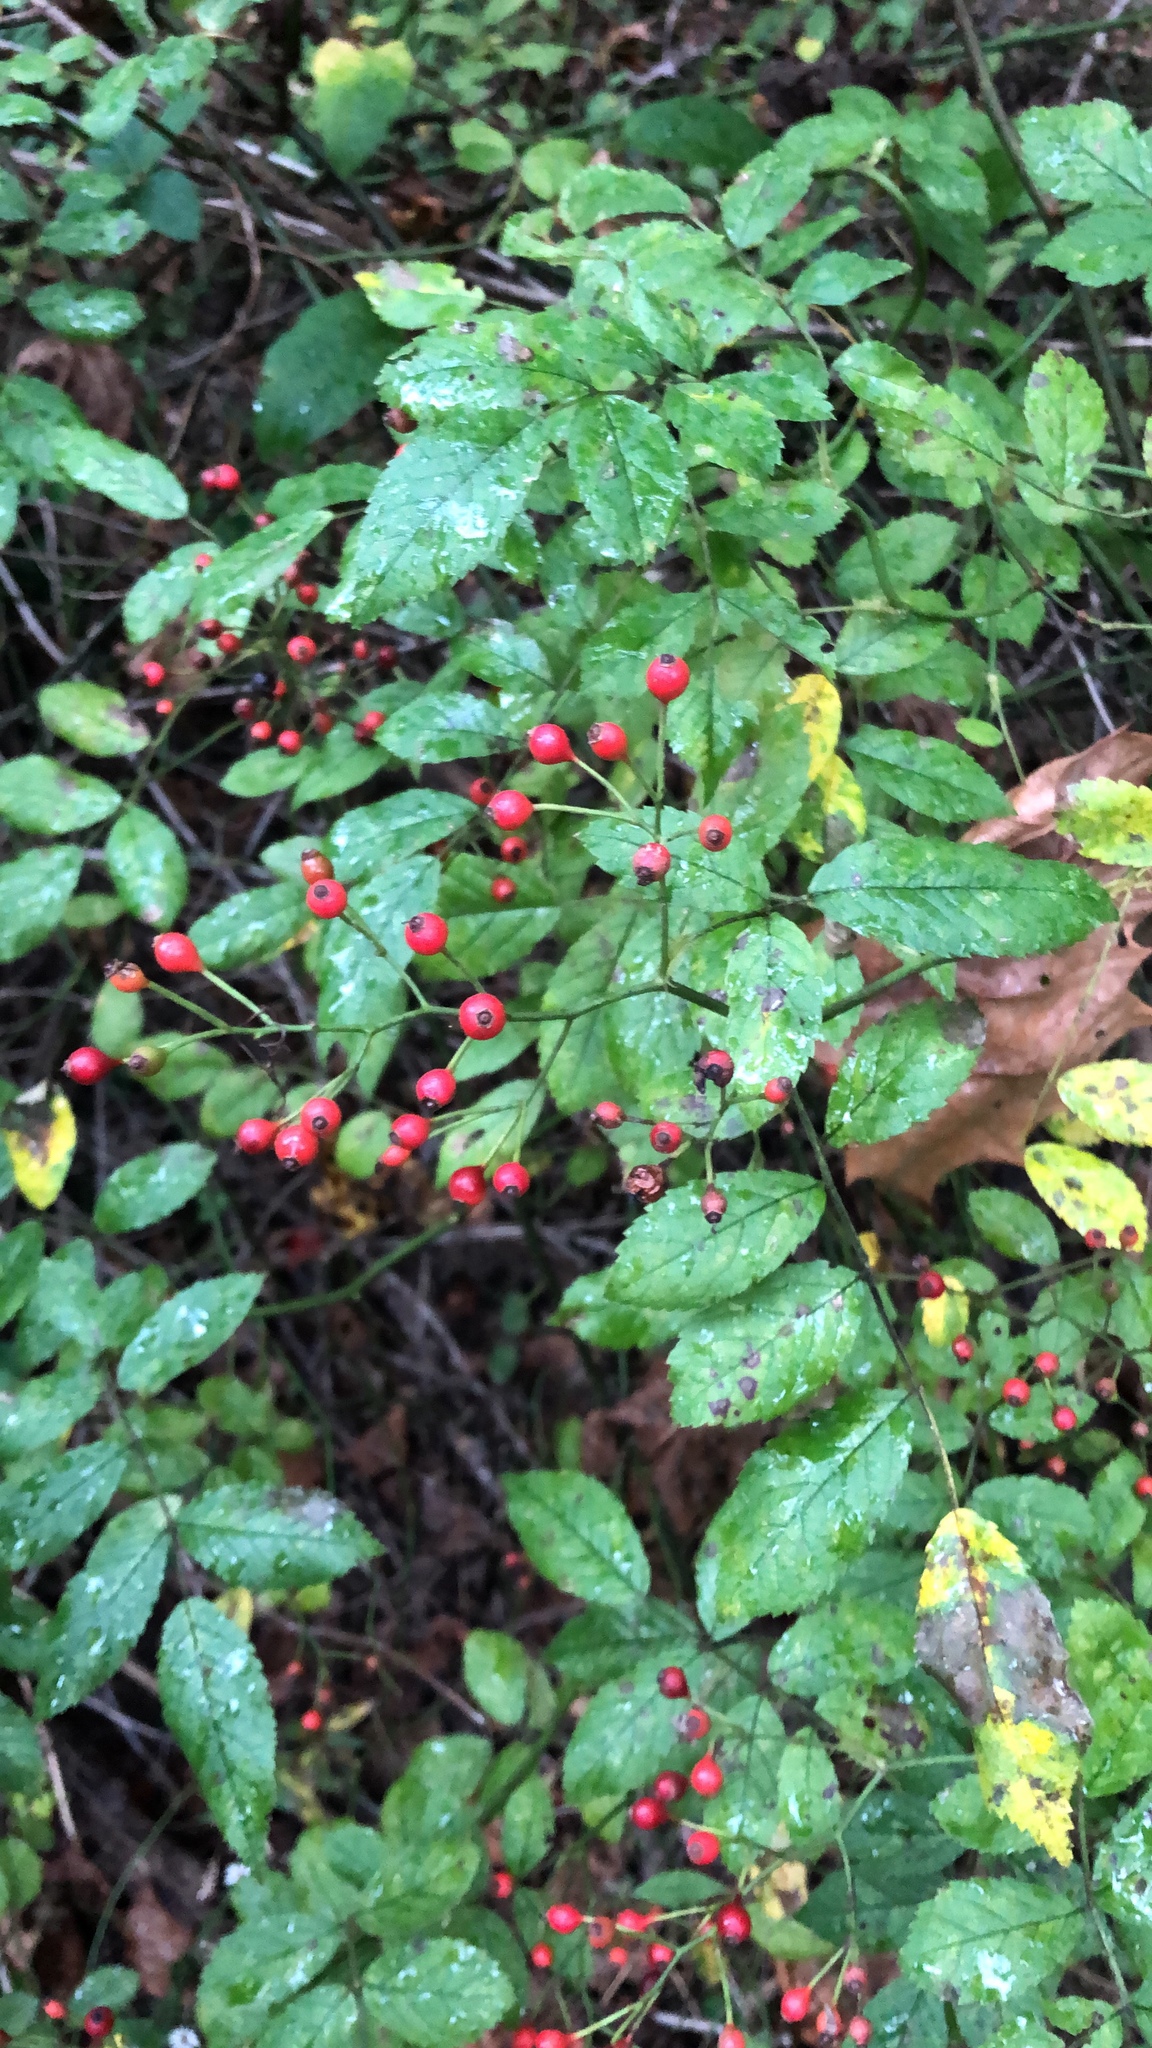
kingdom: Plantae
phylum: Tracheophyta
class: Magnoliopsida
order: Rosales
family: Rosaceae
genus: Rosa
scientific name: Rosa multiflora
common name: Multiflora rose
